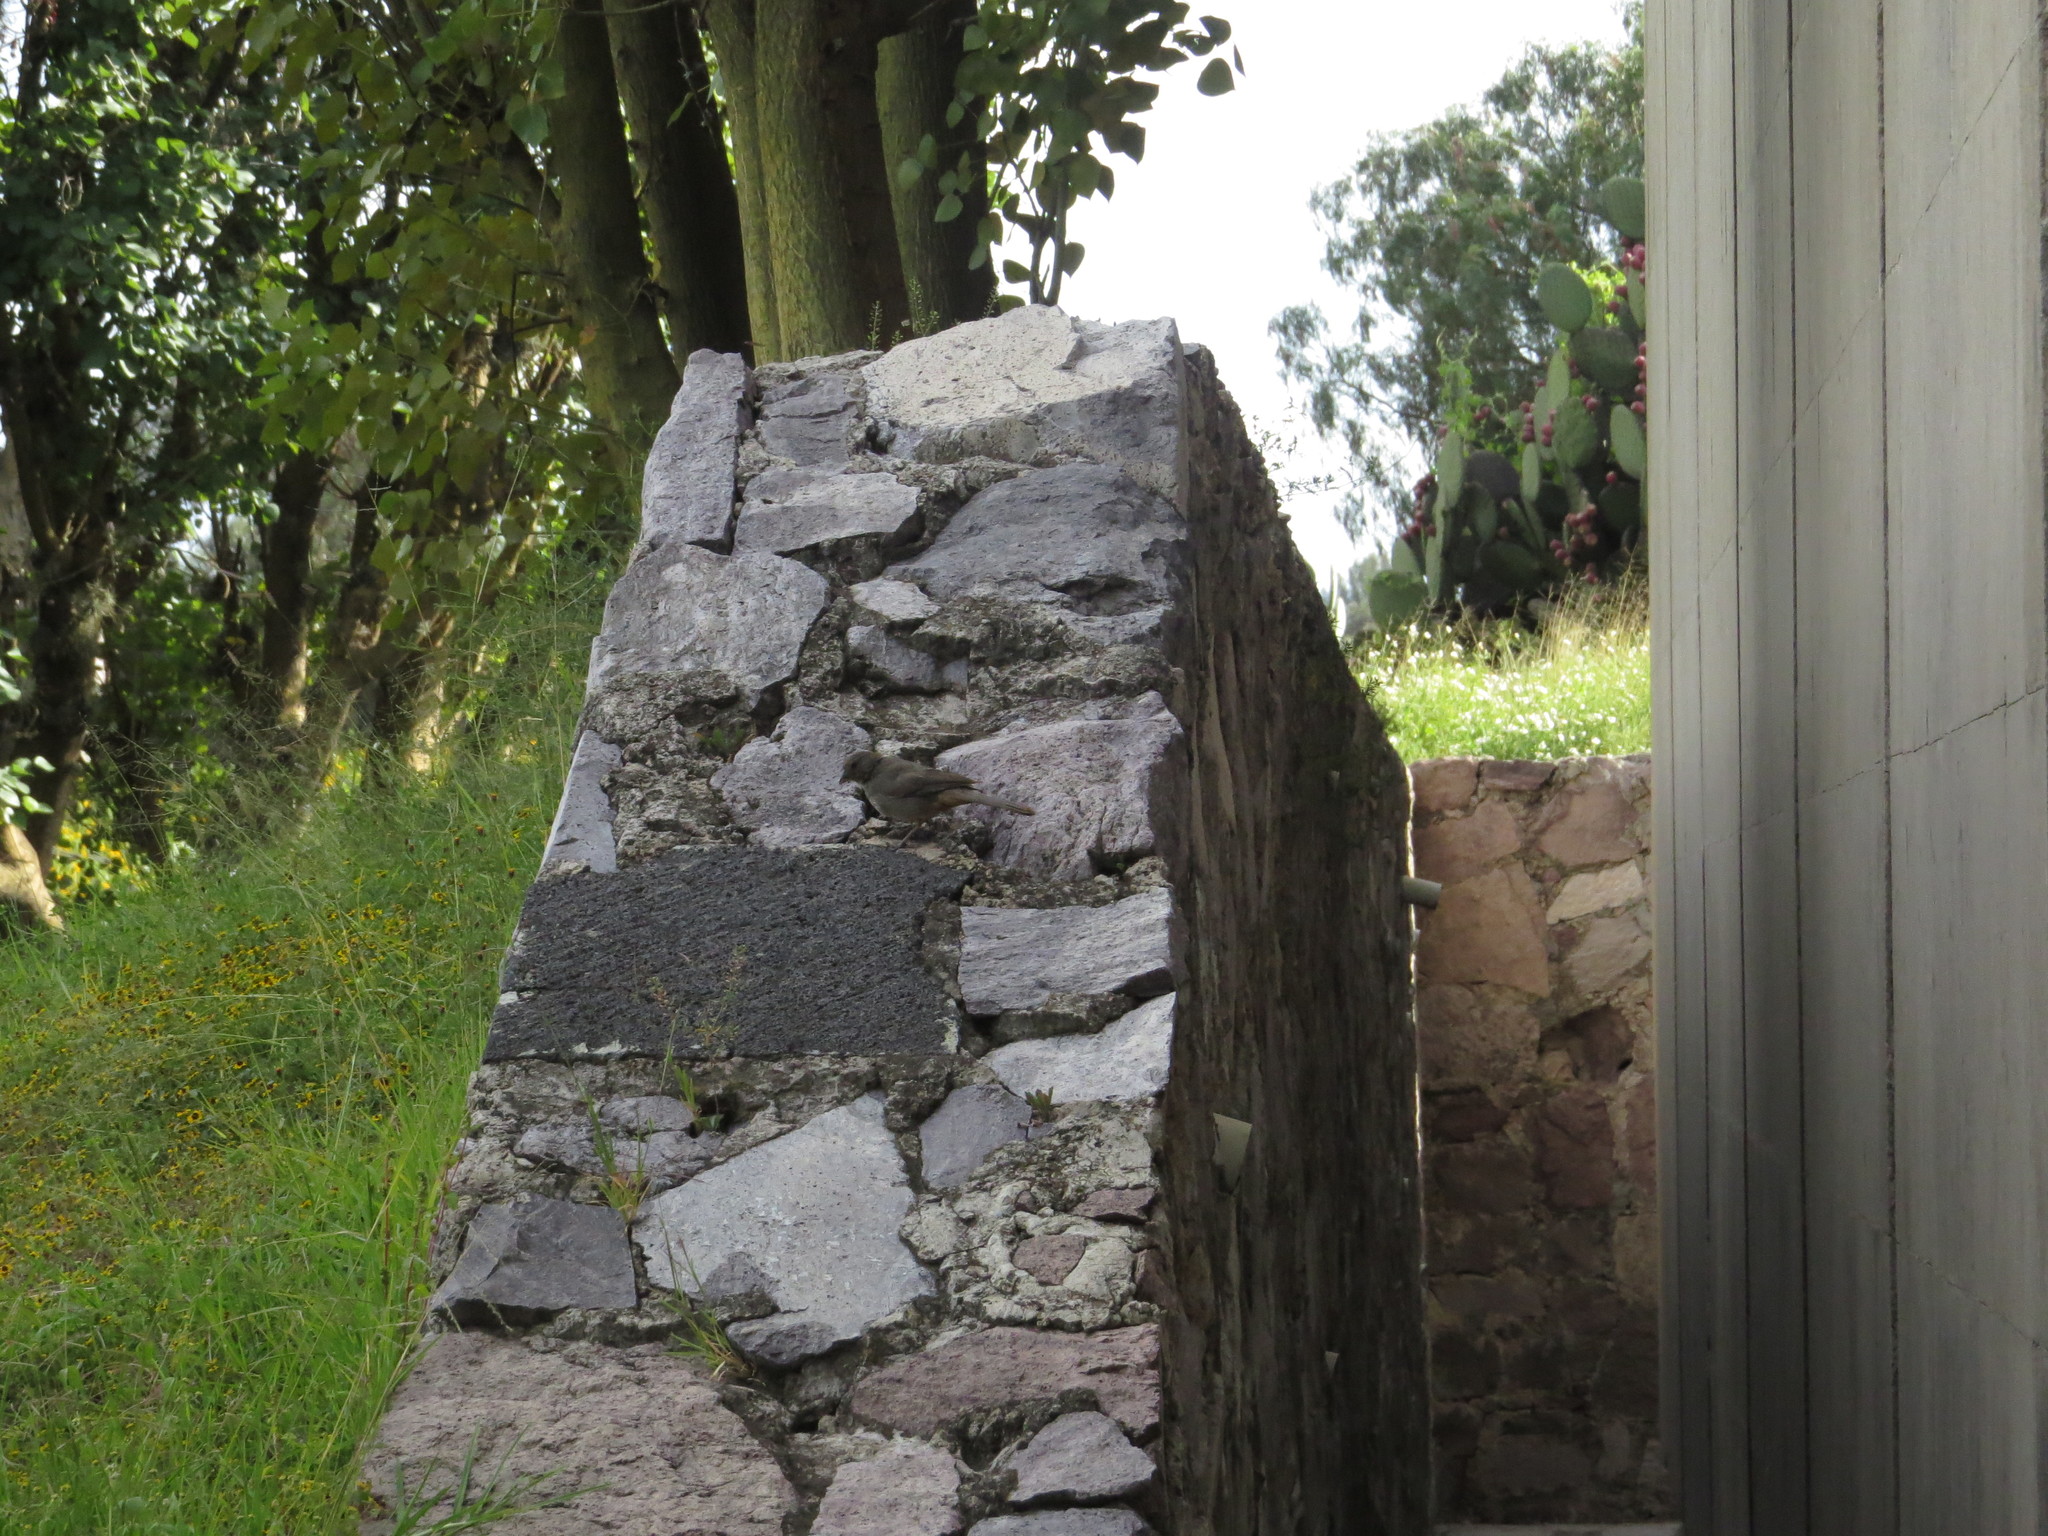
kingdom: Animalia
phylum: Chordata
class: Aves
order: Passeriformes
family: Passerellidae
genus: Melozone
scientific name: Melozone fusca
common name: Canyon towhee
